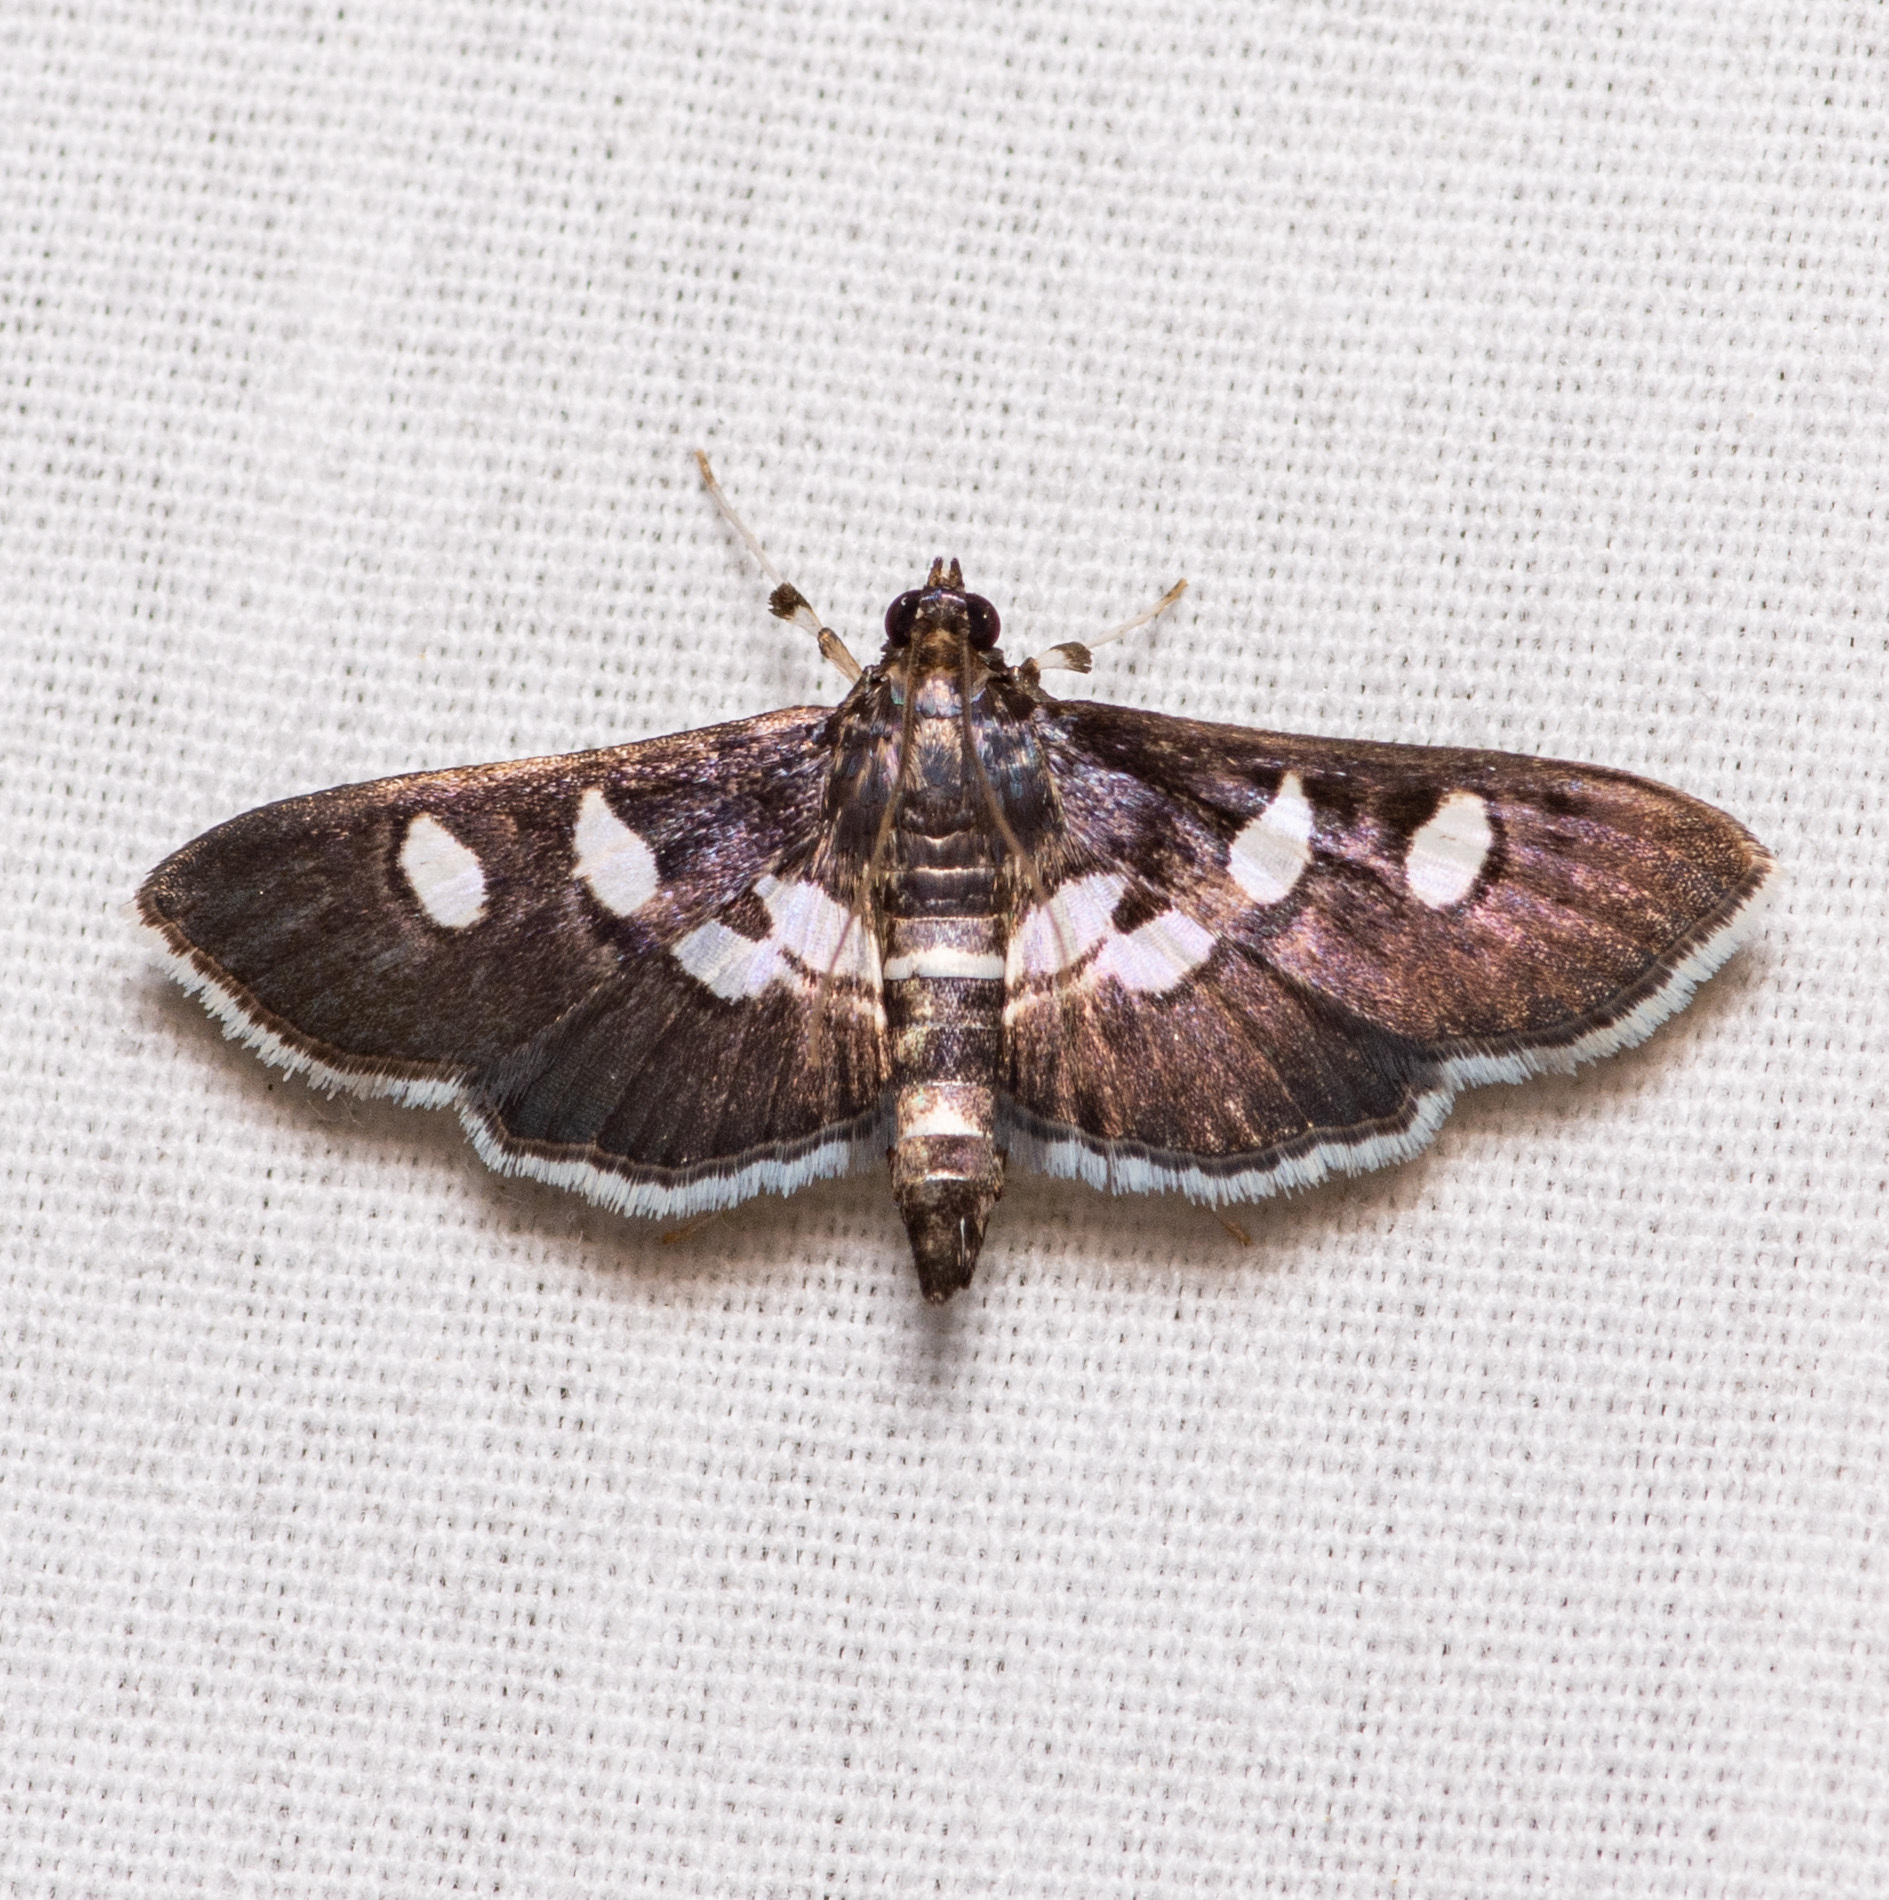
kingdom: Animalia
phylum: Arthropoda
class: Insecta
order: Lepidoptera
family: Crambidae
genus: Desmia
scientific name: Desmia funeralis
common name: Grape leaf folder moth
